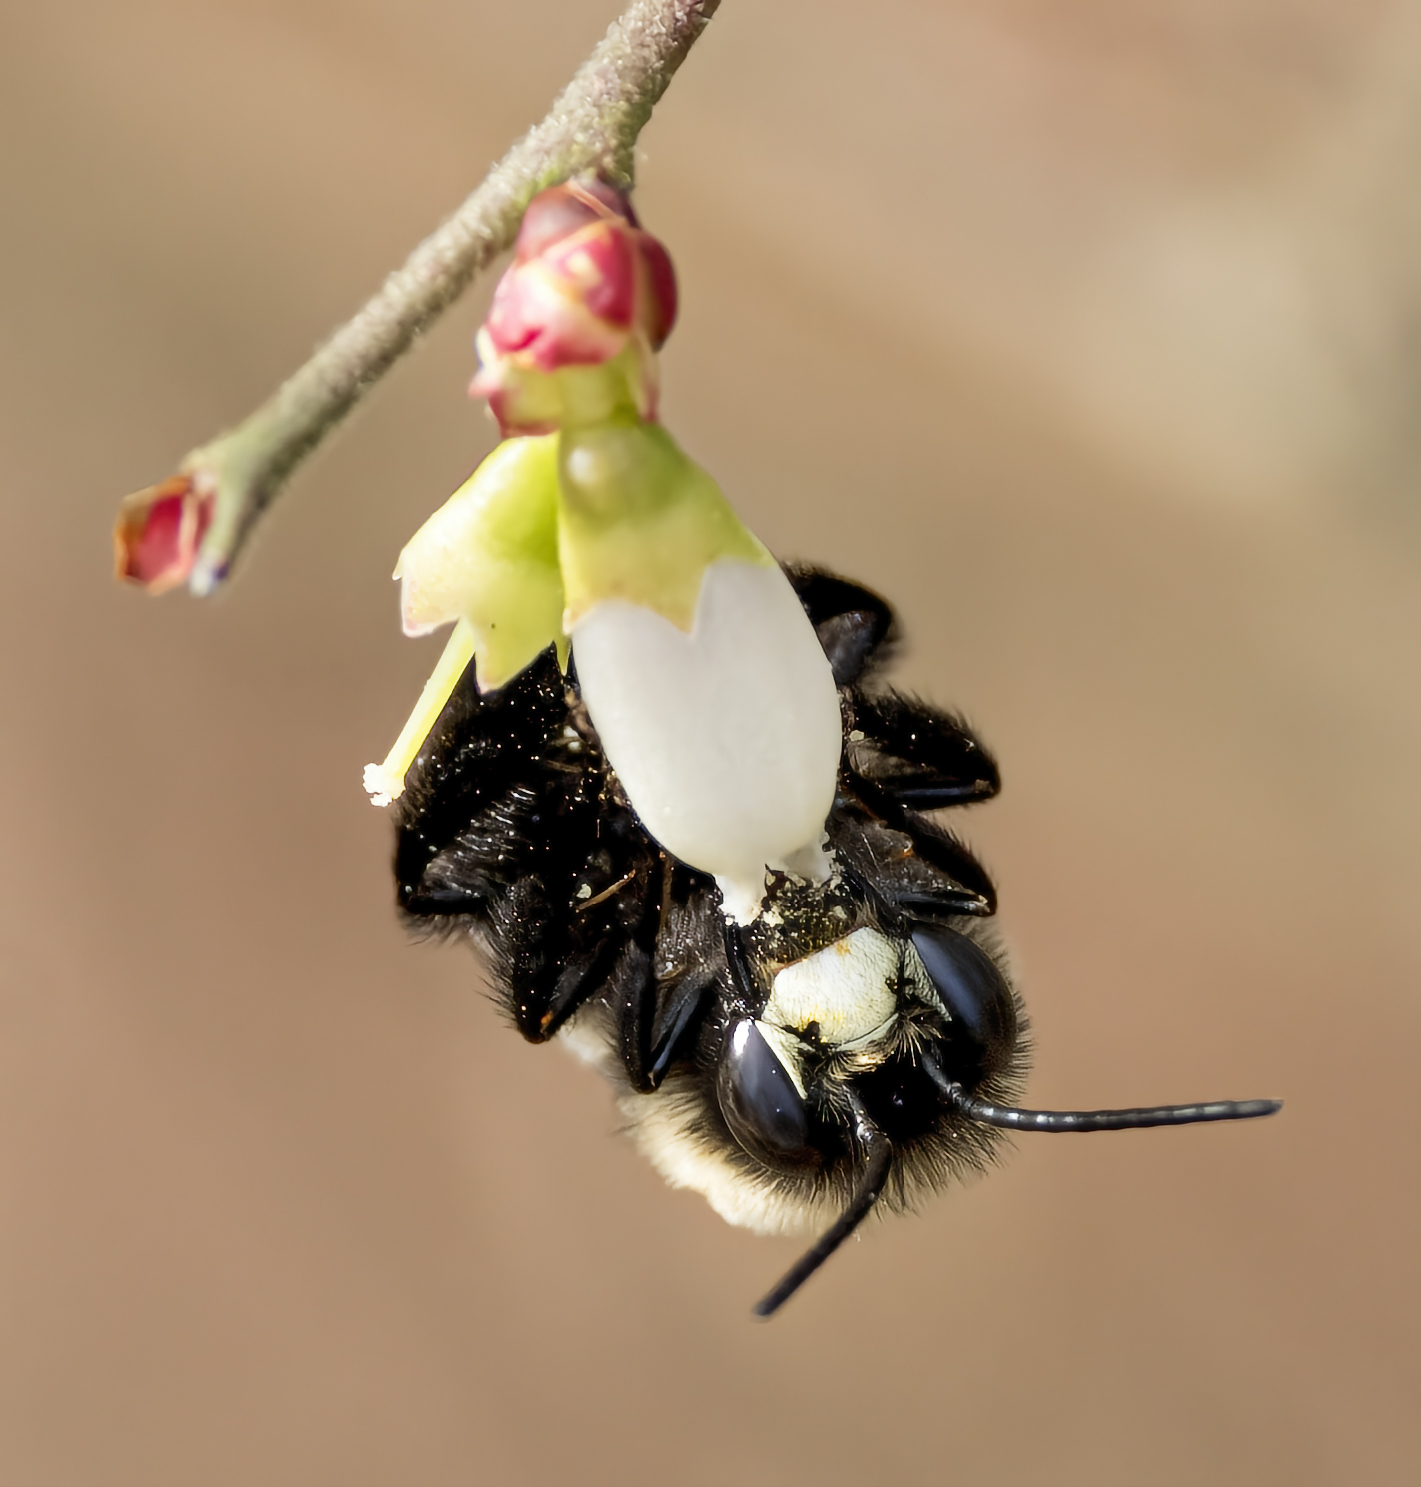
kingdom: Animalia
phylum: Arthropoda
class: Insecta
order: Hymenoptera
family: Apidae
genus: Habropoda
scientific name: Habropoda laboriosa
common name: Southeastern blueberry bee
